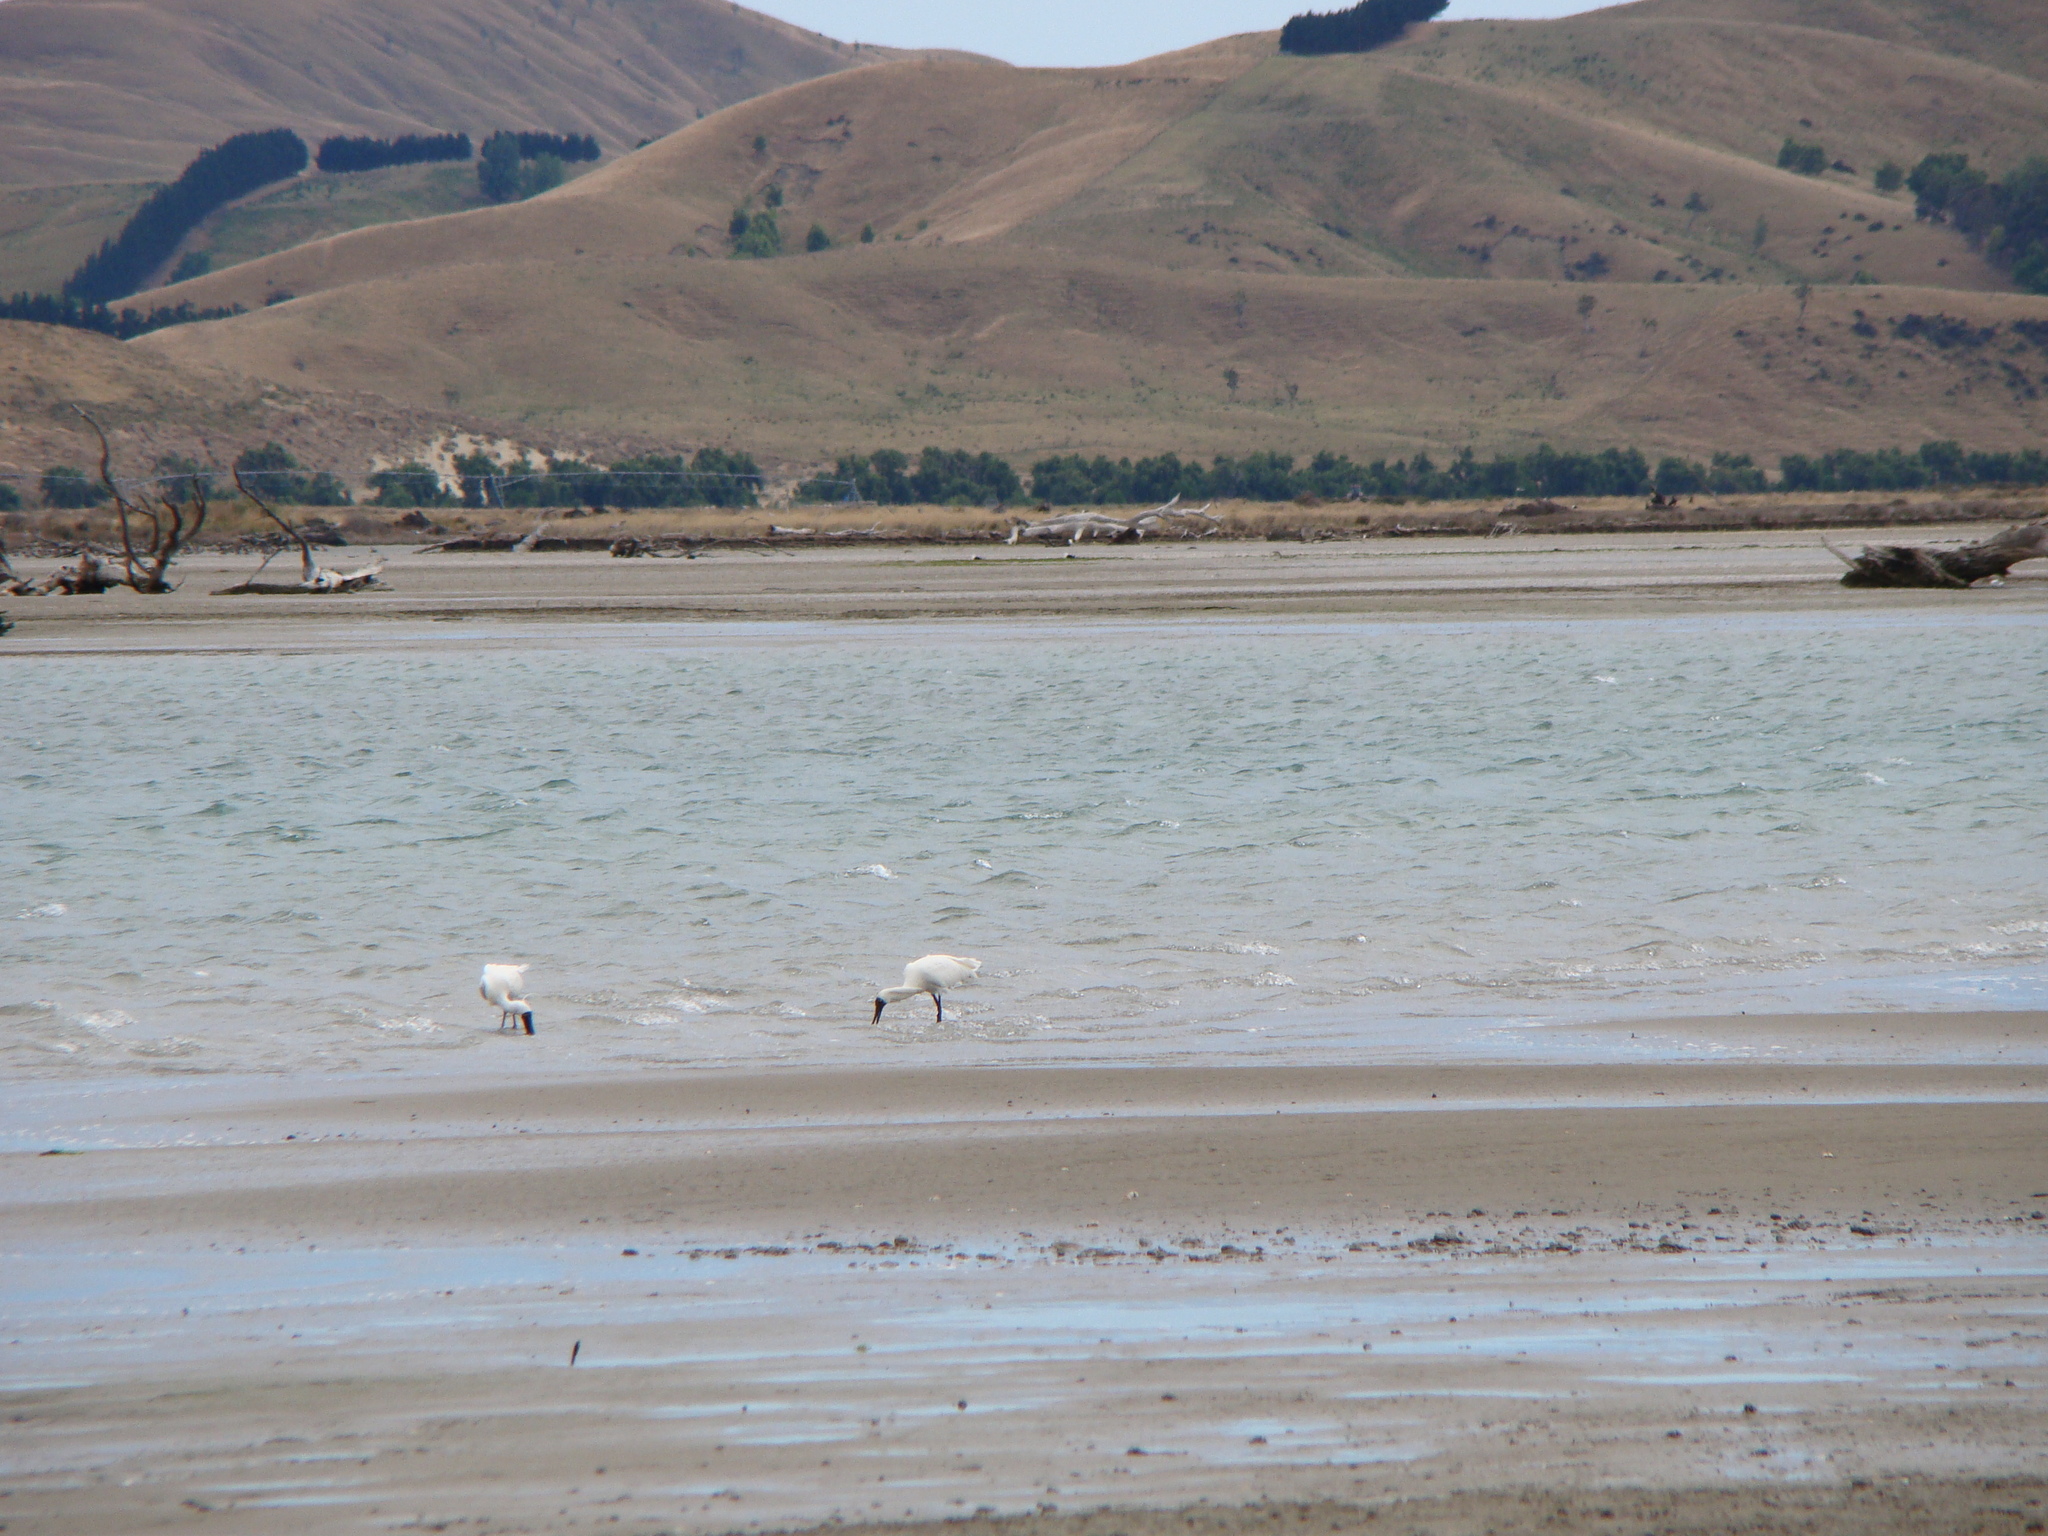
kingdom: Animalia
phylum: Chordata
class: Aves
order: Pelecaniformes
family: Threskiornithidae
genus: Platalea
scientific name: Platalea regia
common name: Royal spoonbill
